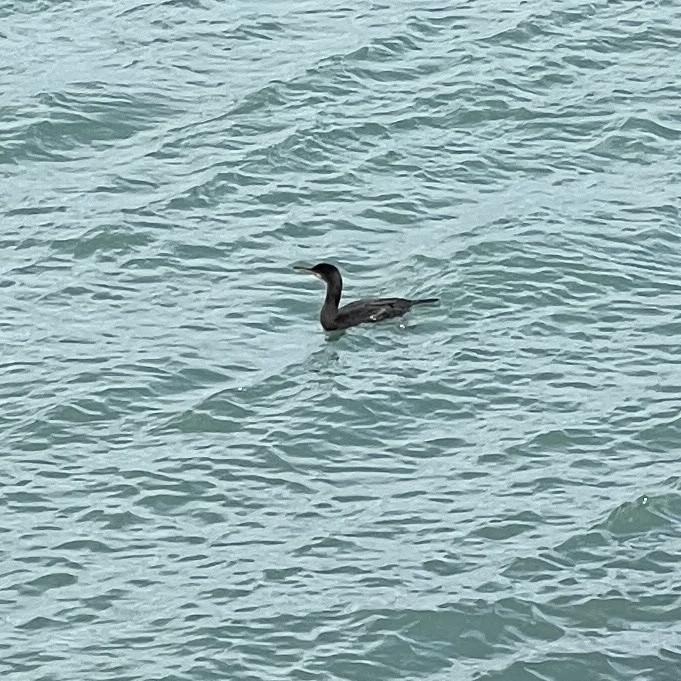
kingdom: Animalia
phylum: Chordata
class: Aves
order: Suliformes
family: Phalacrocoracidae
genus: Phalacrocorax
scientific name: Phalacrocorax aristotelis
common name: European shag
